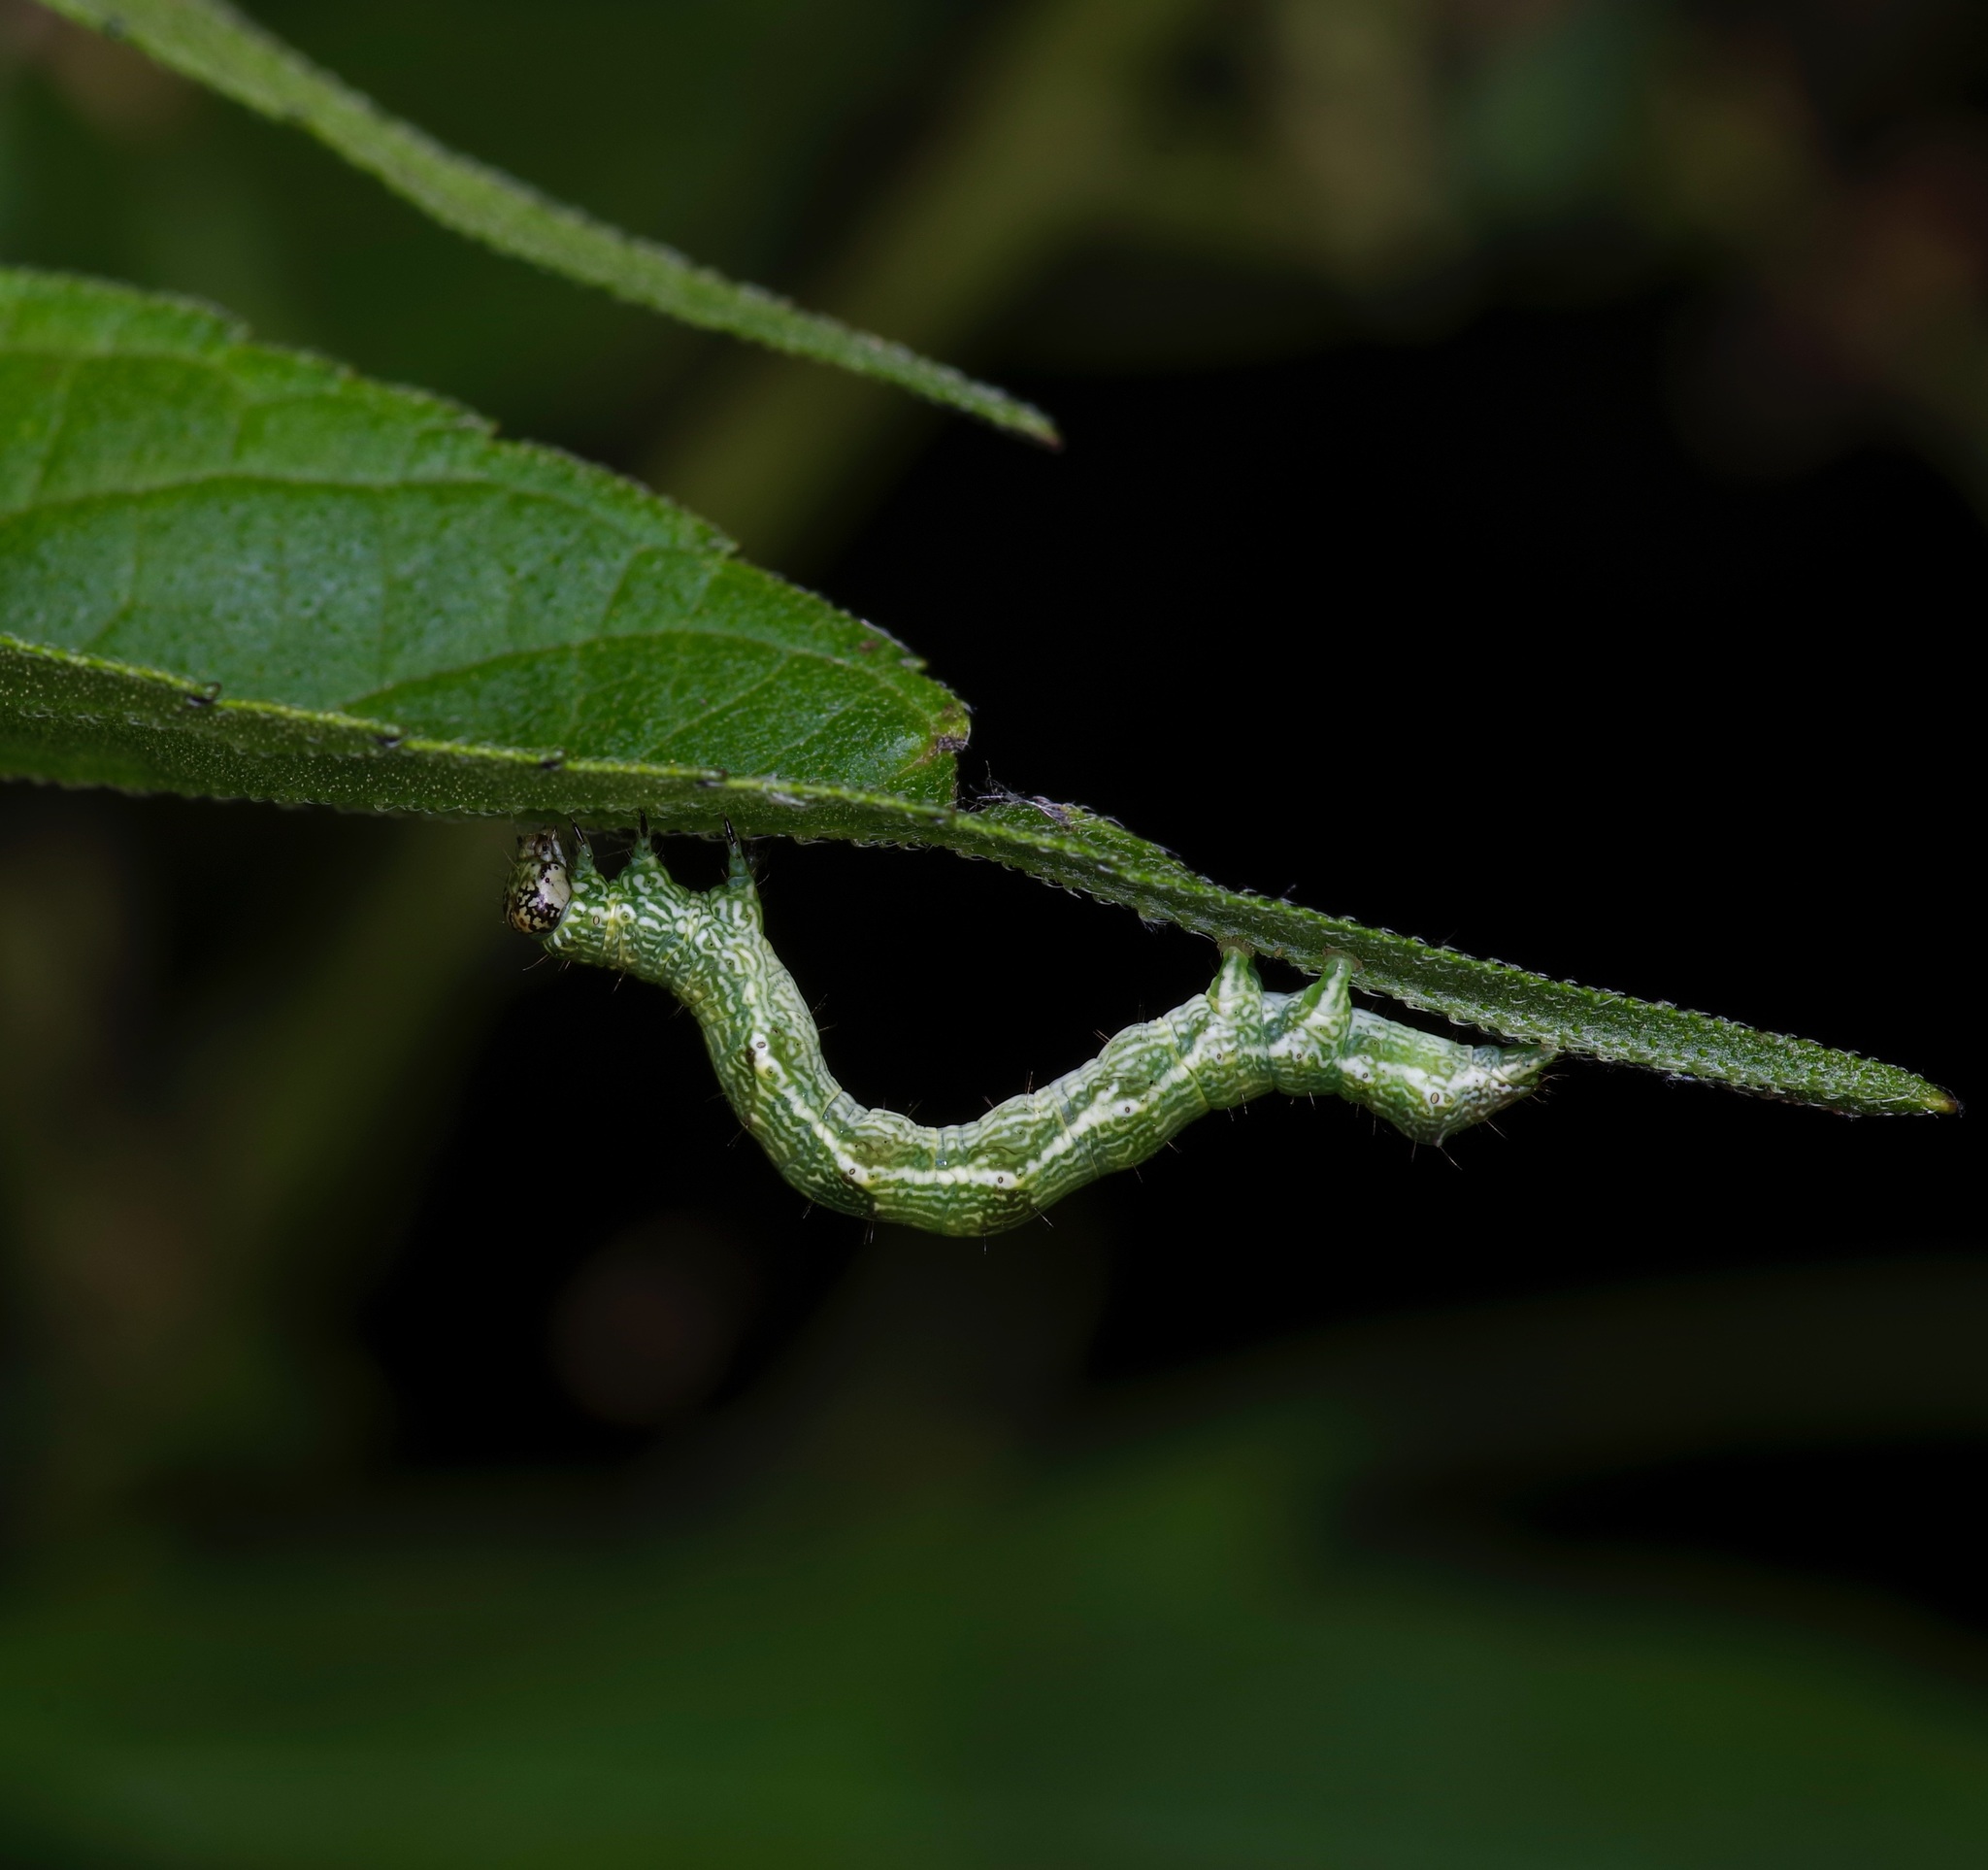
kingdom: Animalia
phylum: Arthropoda
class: Insecta
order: Lepidoptera
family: Noctuidae
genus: Acontia
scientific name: Acontia candefacta
